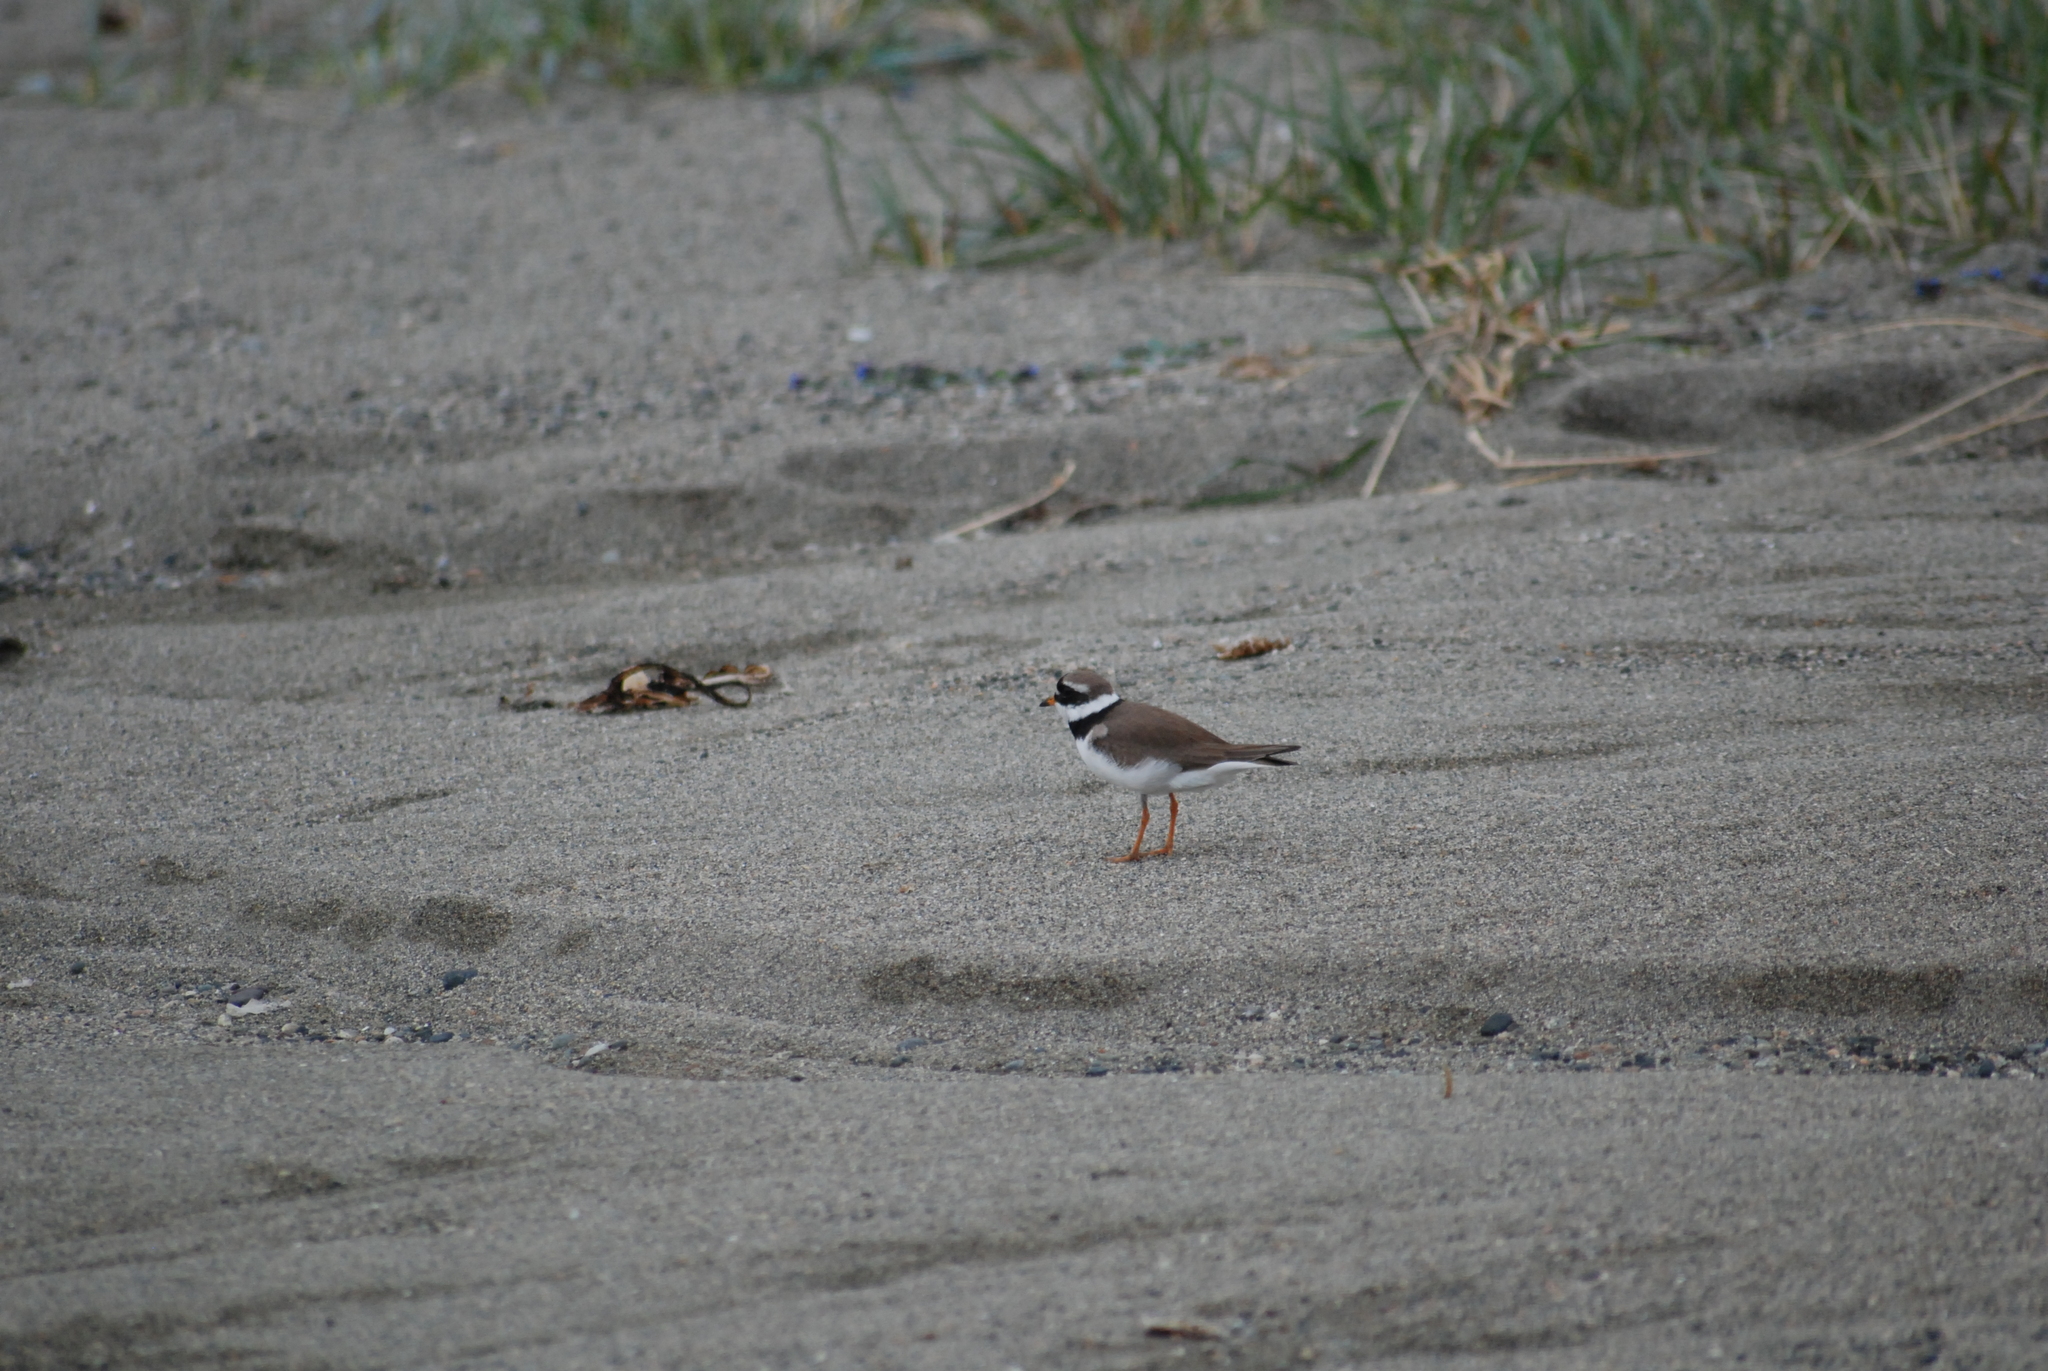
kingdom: Animalia
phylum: Chordata
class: Aves
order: Charadriiformes
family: Charadriidae
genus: Charadrius
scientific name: Charadrius hiaticula
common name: Common ringed plover
